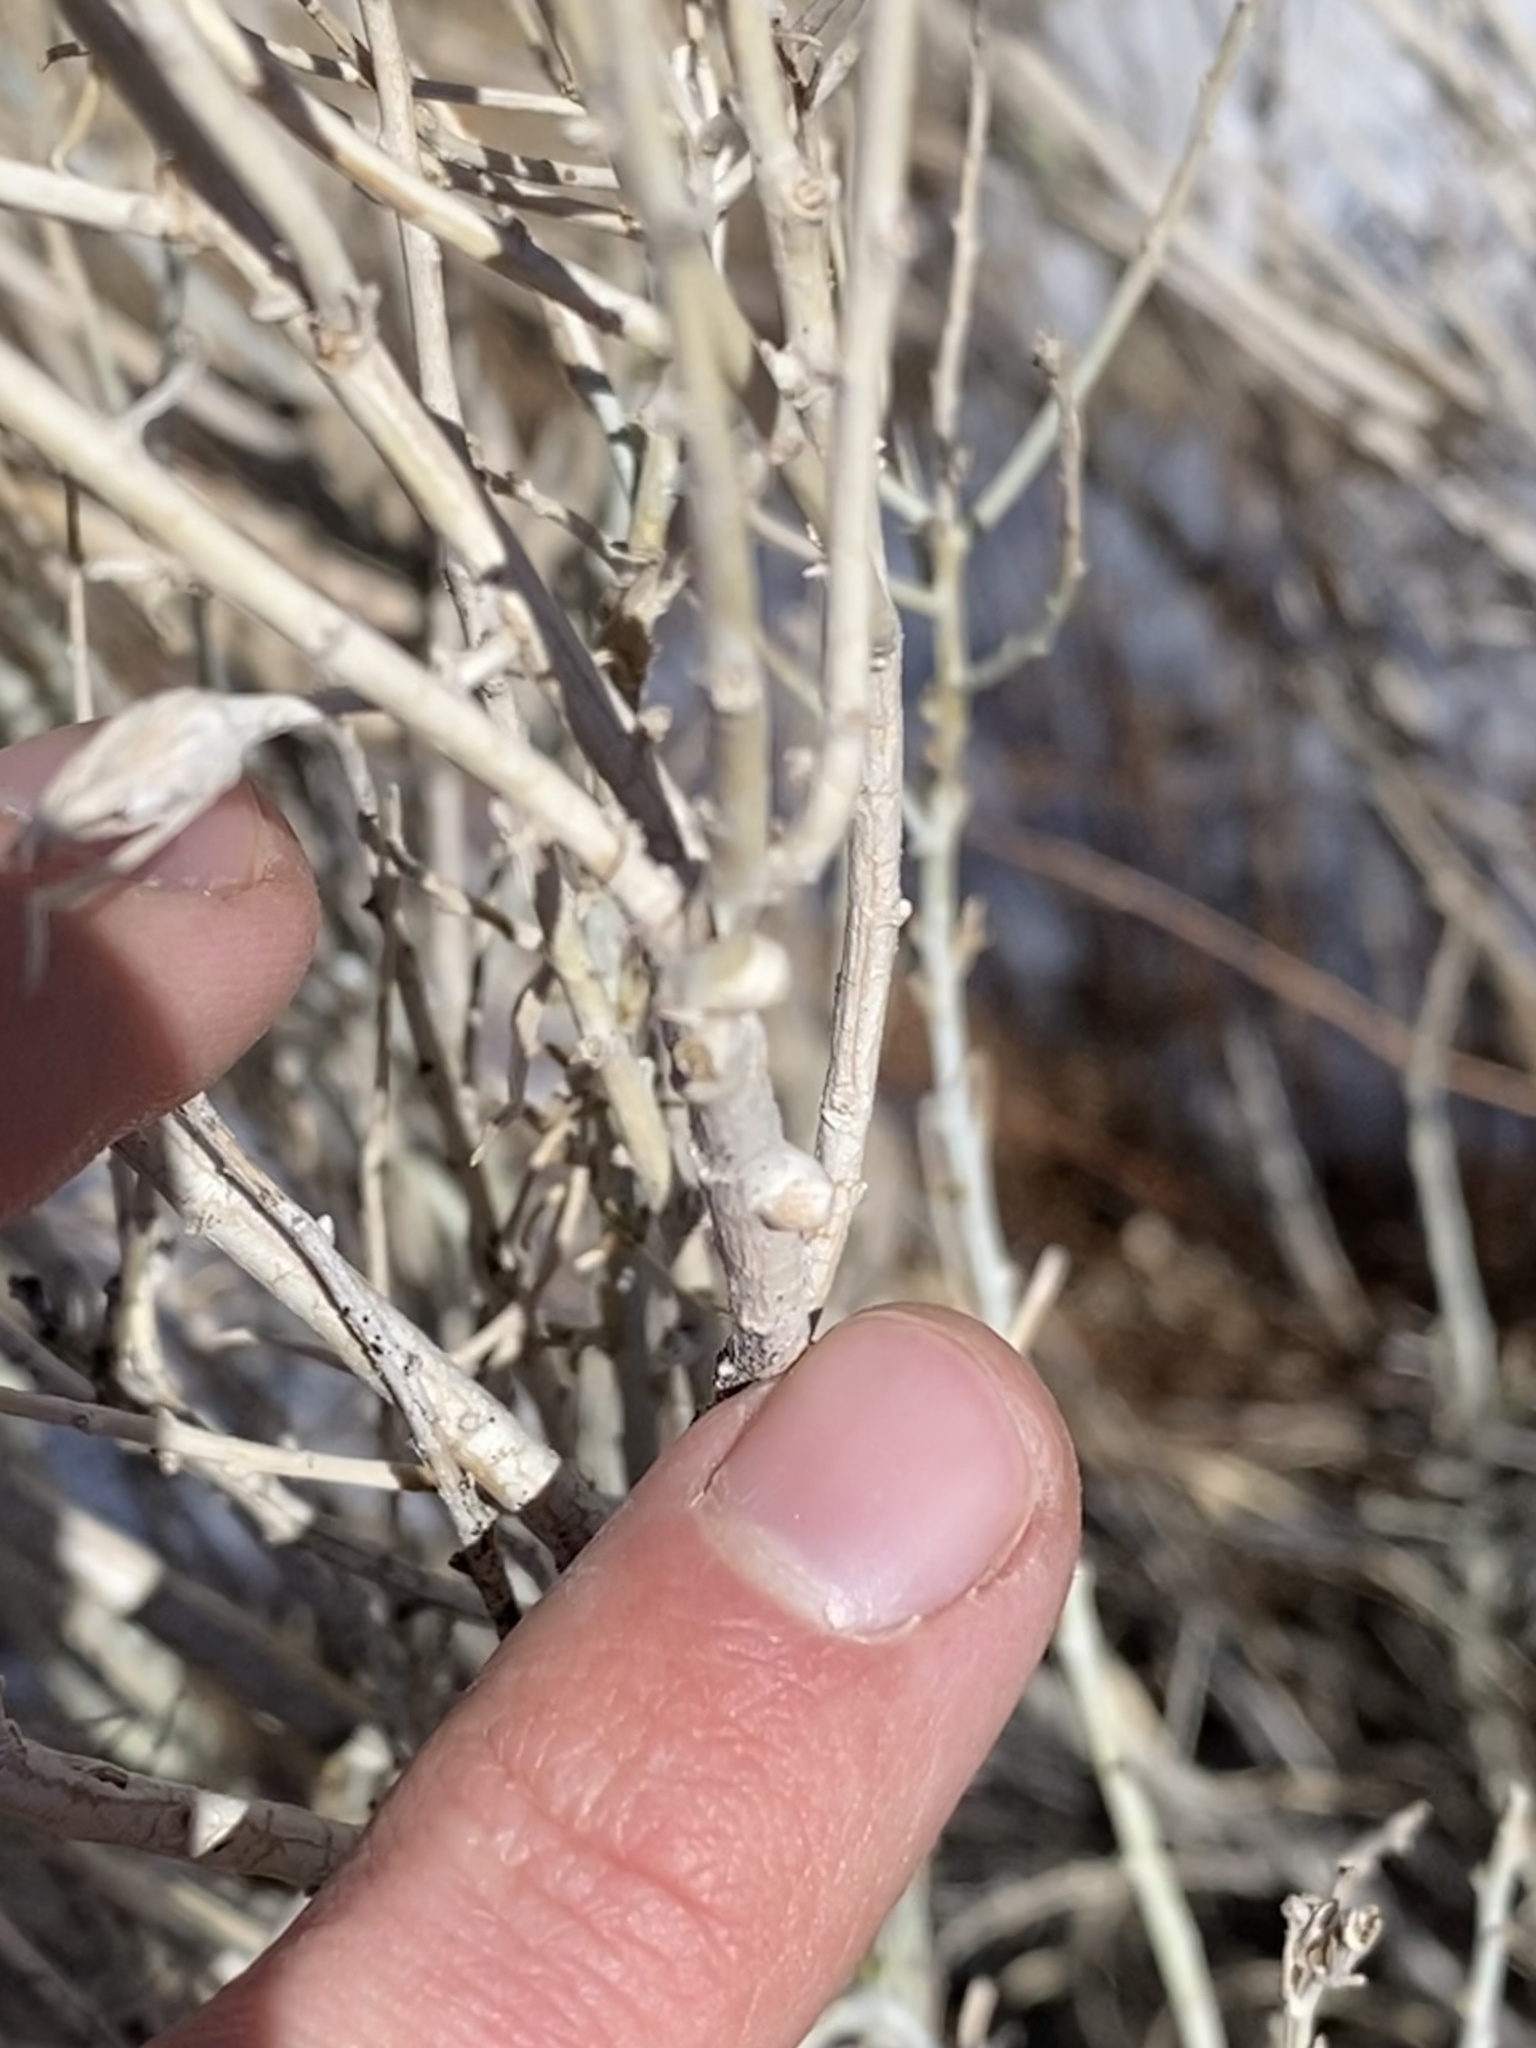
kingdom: Animalia
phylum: Arthropoda
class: Insecta
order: Diptera
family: Cecidomyiidae
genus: Rhopalomyia
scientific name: Rhopalomyia chrysothamni
